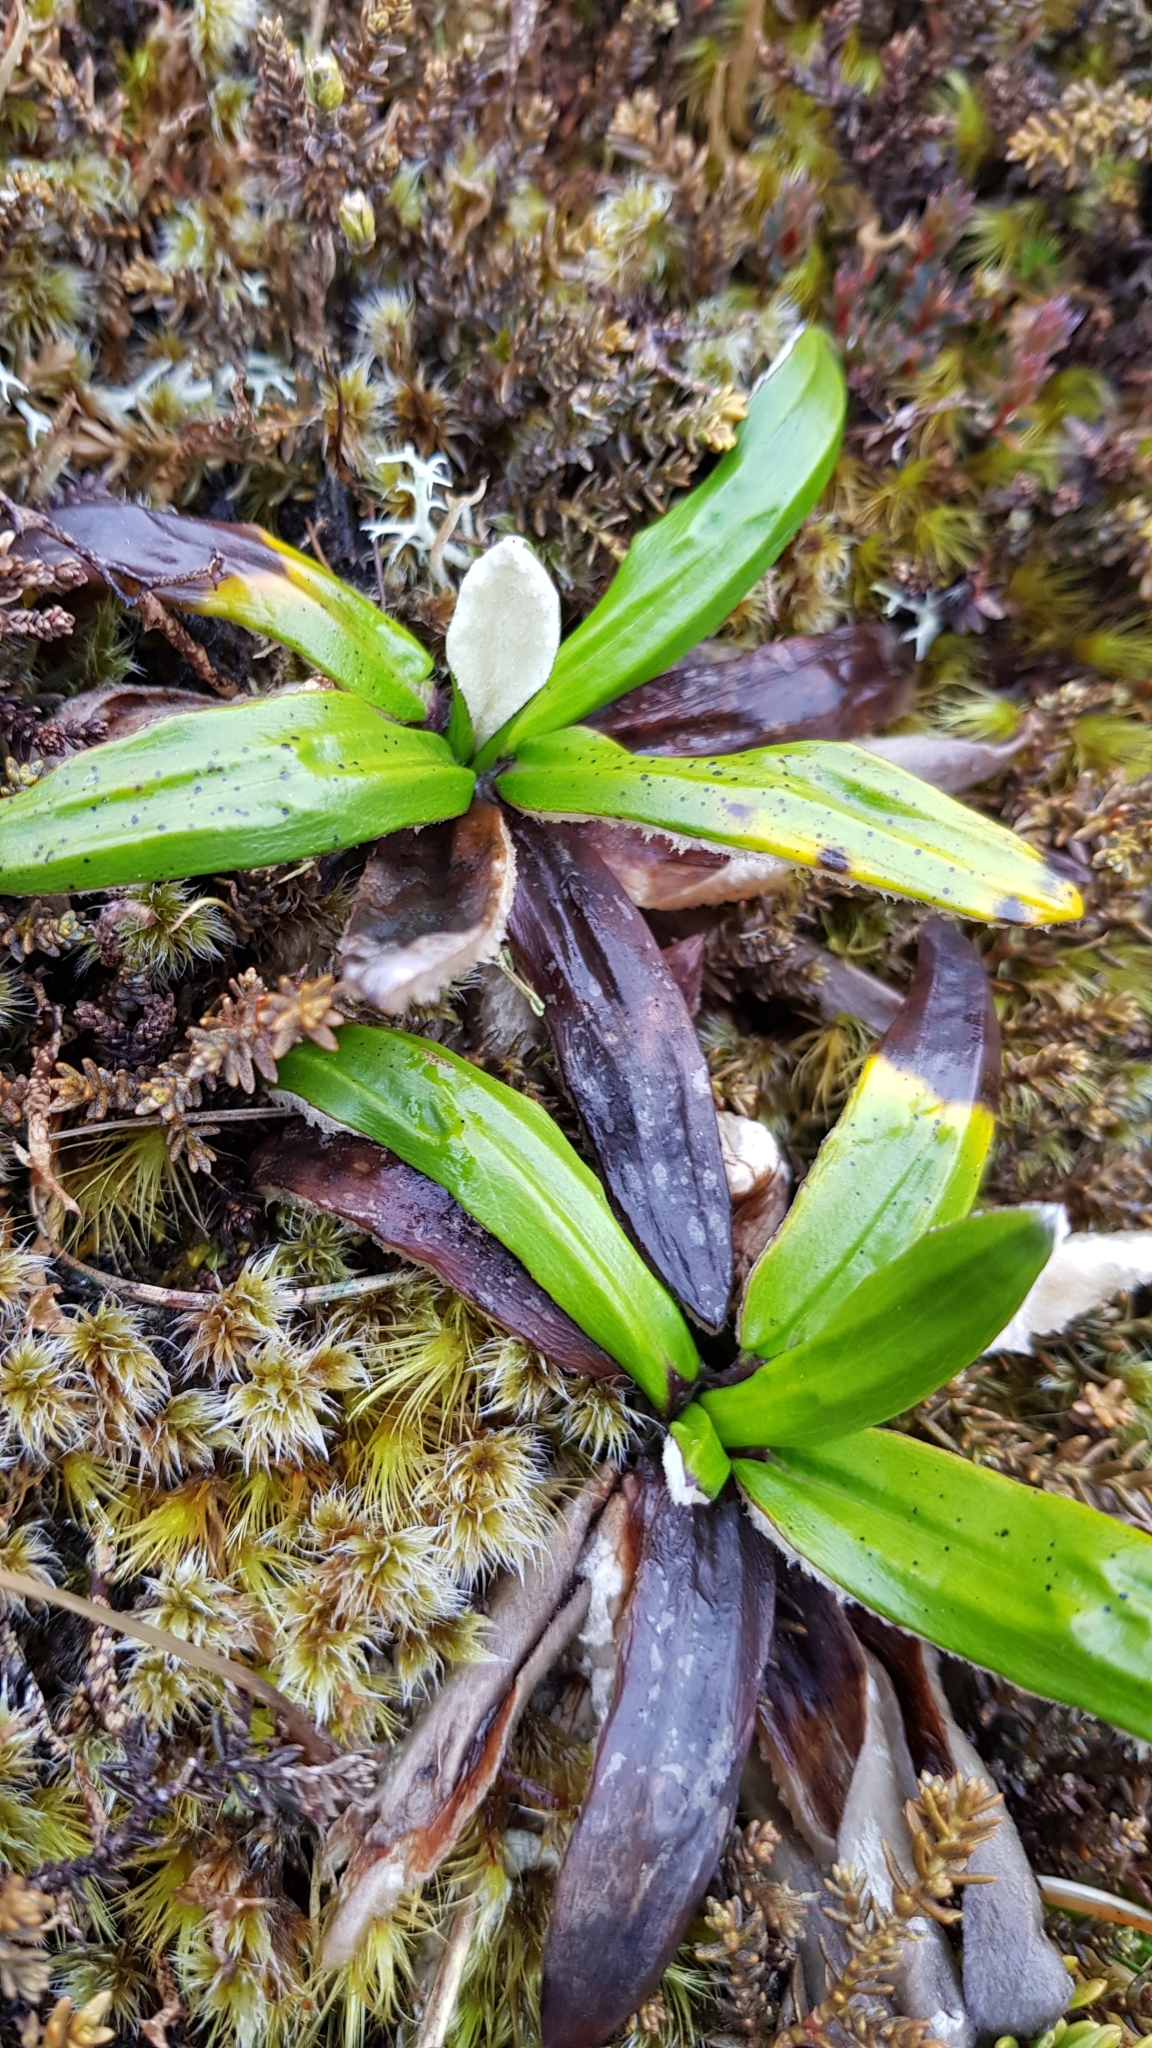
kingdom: Plantae
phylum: Tracheophyta
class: Magnoliopsida
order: Asterales
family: Asteraceae
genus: Celmisia
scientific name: Celmisia spectabilis
